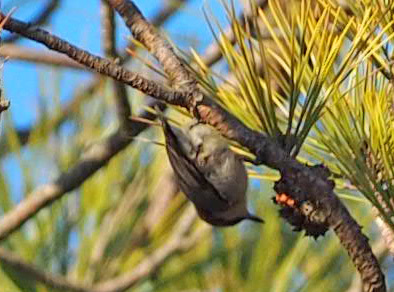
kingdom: Animalia
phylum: Chordata
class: Aves
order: Passeriformes
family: Sittidae
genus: Sitta
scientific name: Sitta pusilla
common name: Brown-headed nuthatch
